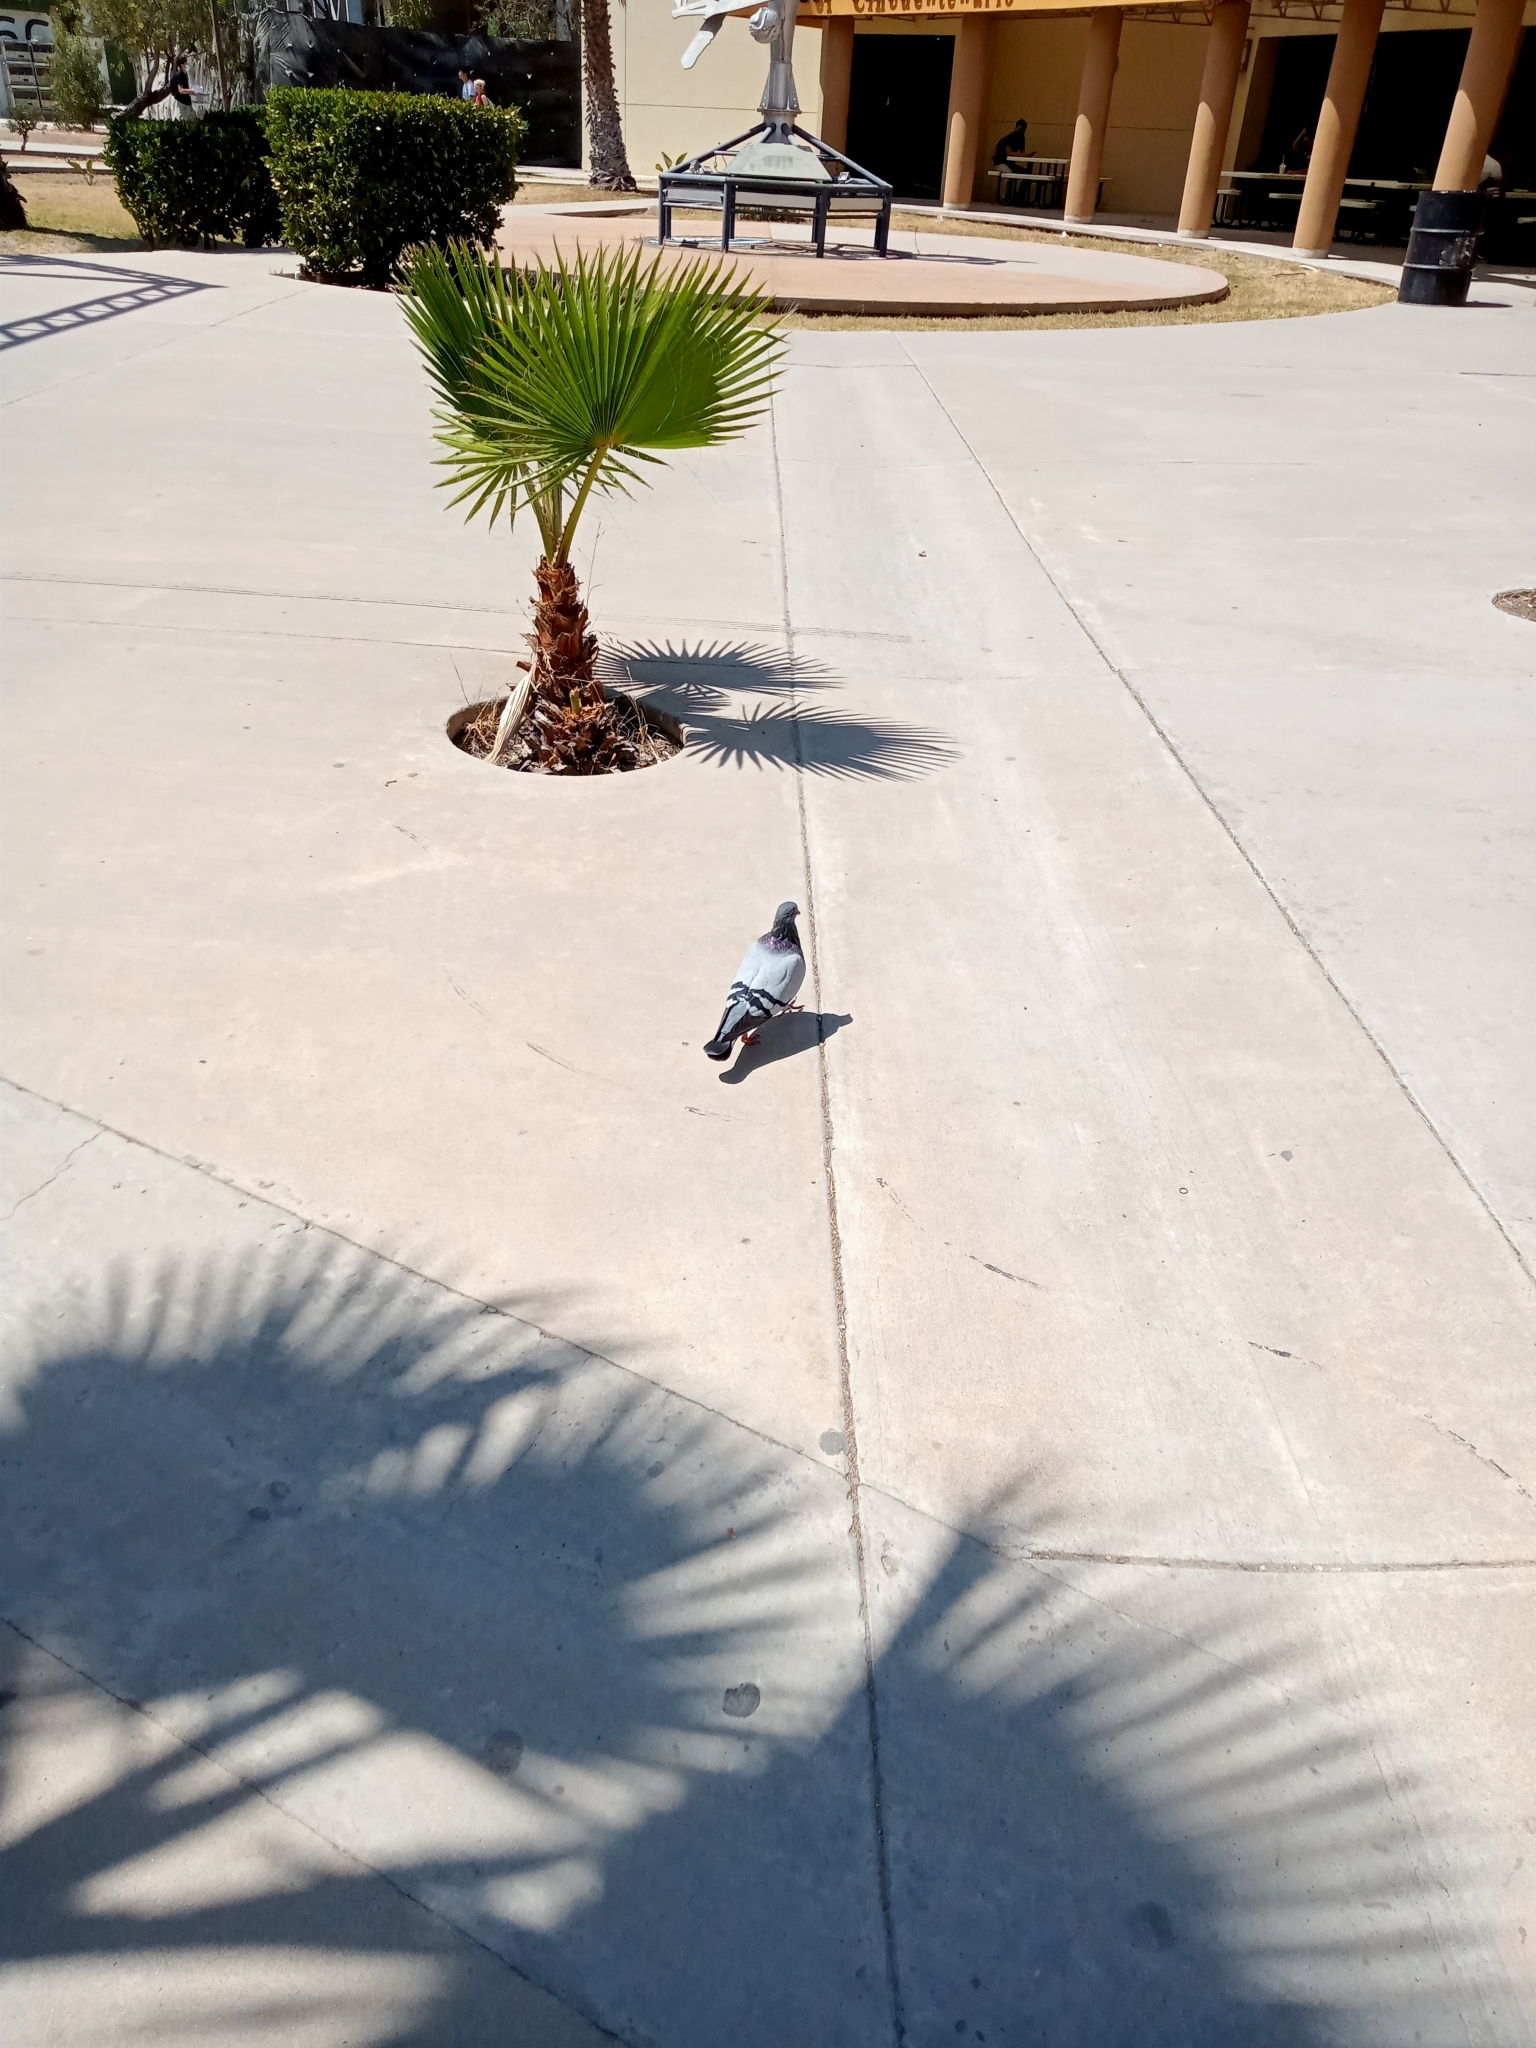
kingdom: Animalia
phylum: Chordata
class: Aves
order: Columbiformes
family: Columbidae
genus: Columba
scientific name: Columba livia
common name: Rock pigeon
